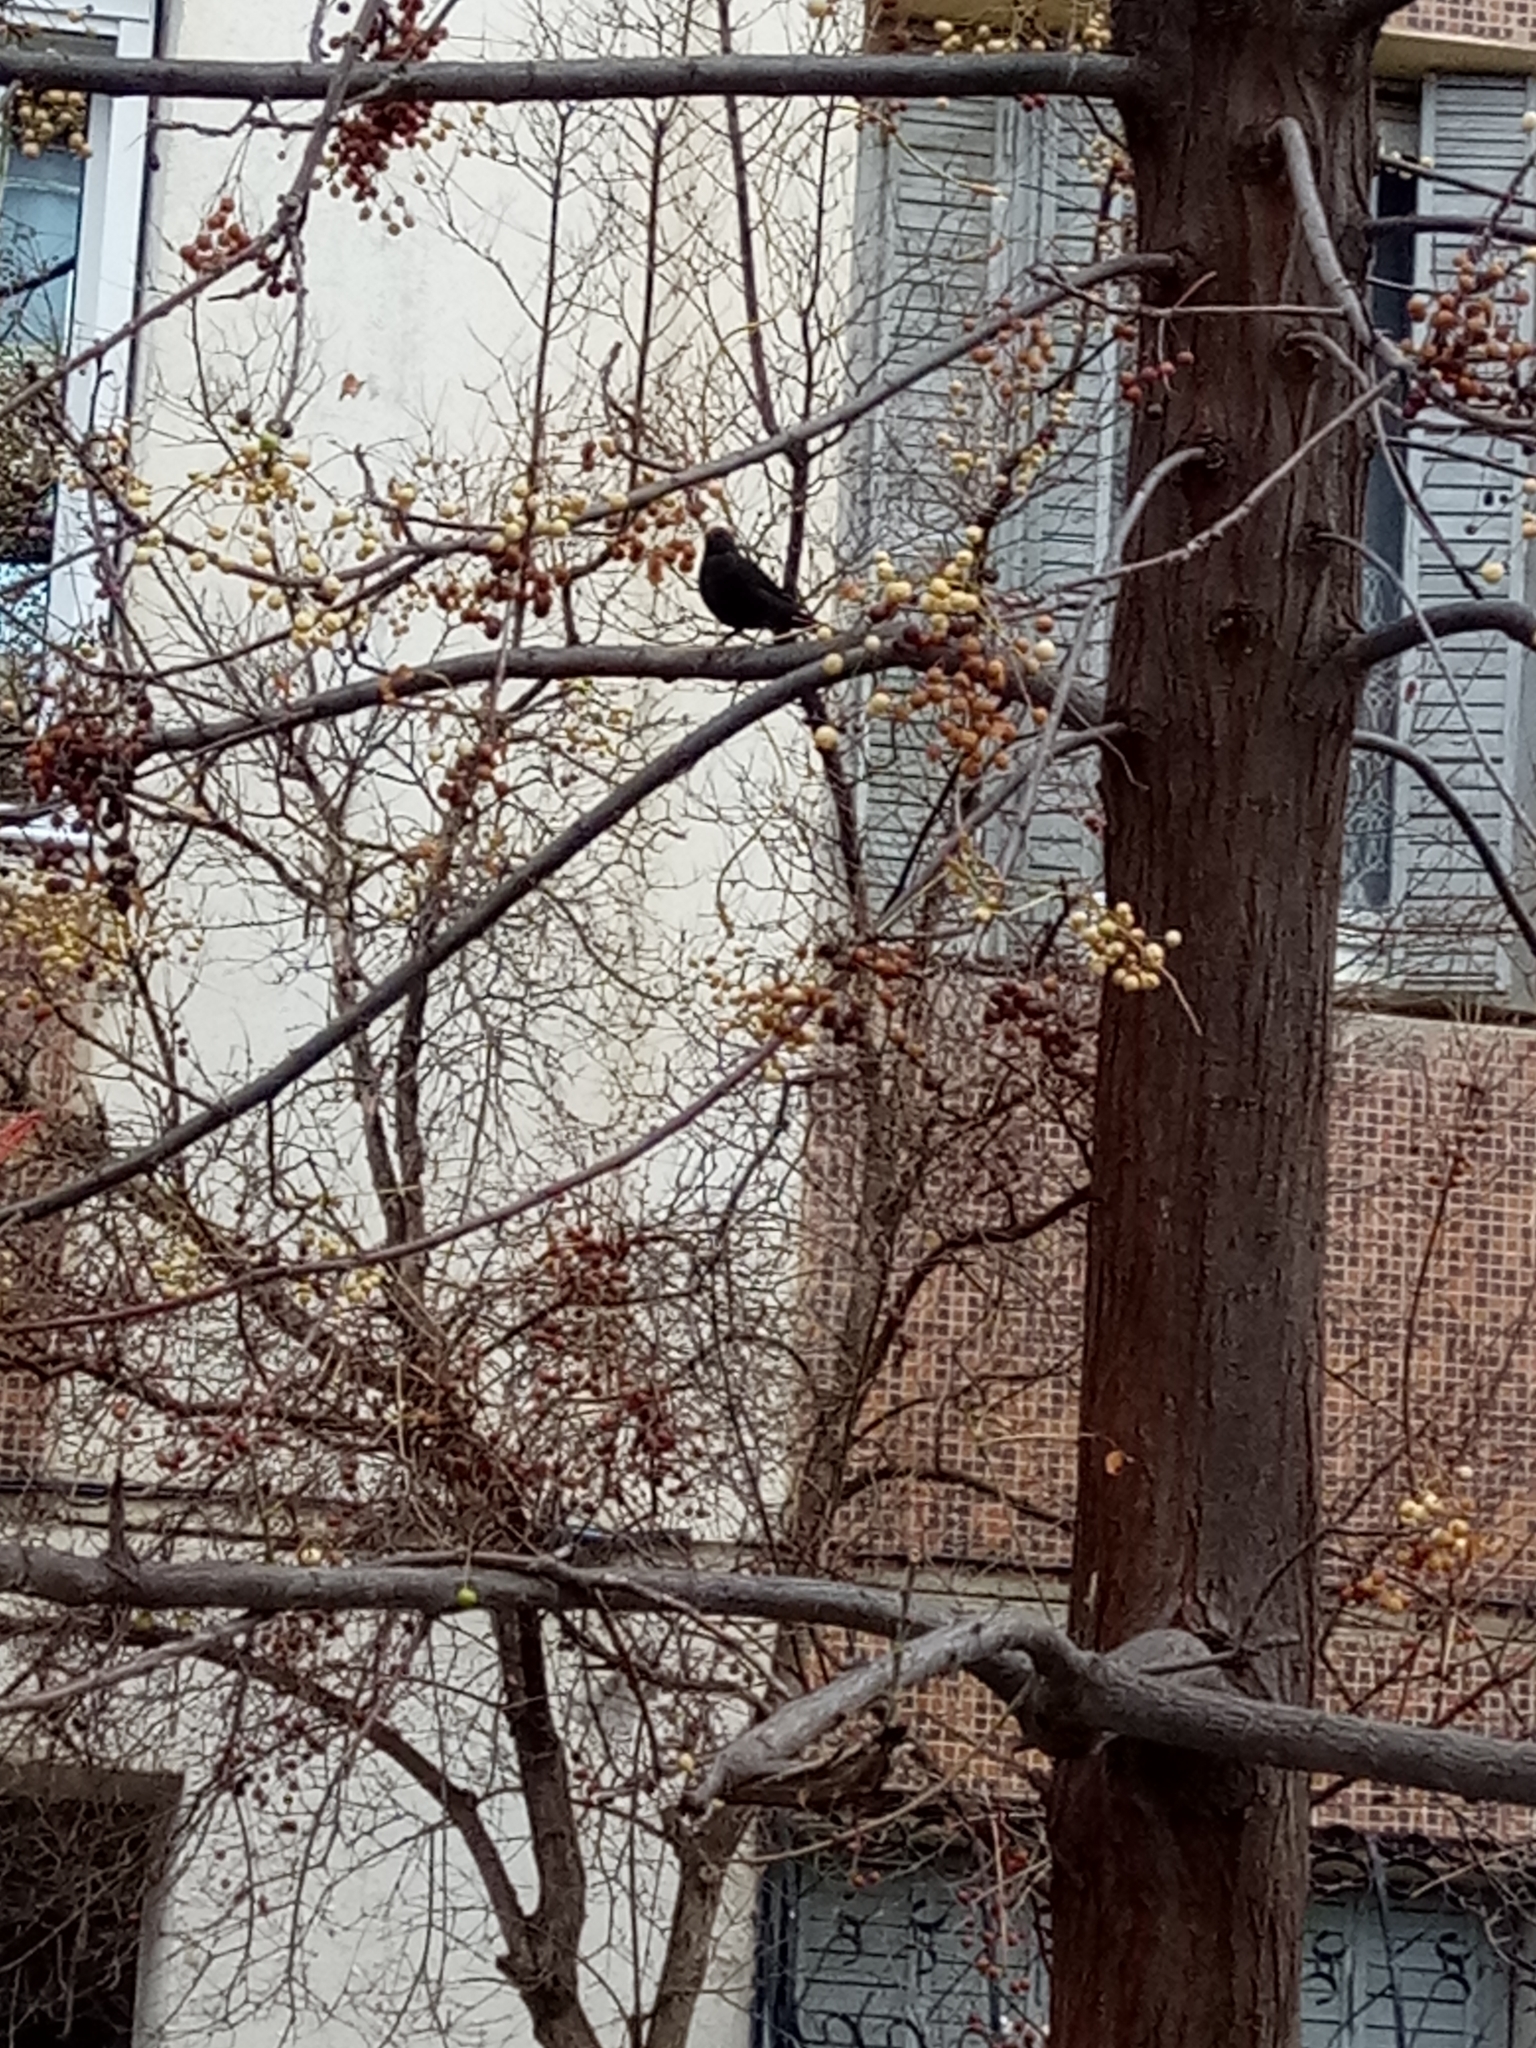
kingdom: Animalia
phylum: Chordata
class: Aves
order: Passeriformes
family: Turdidae
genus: Turdus
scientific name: Turdus merula
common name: Common blackbird
